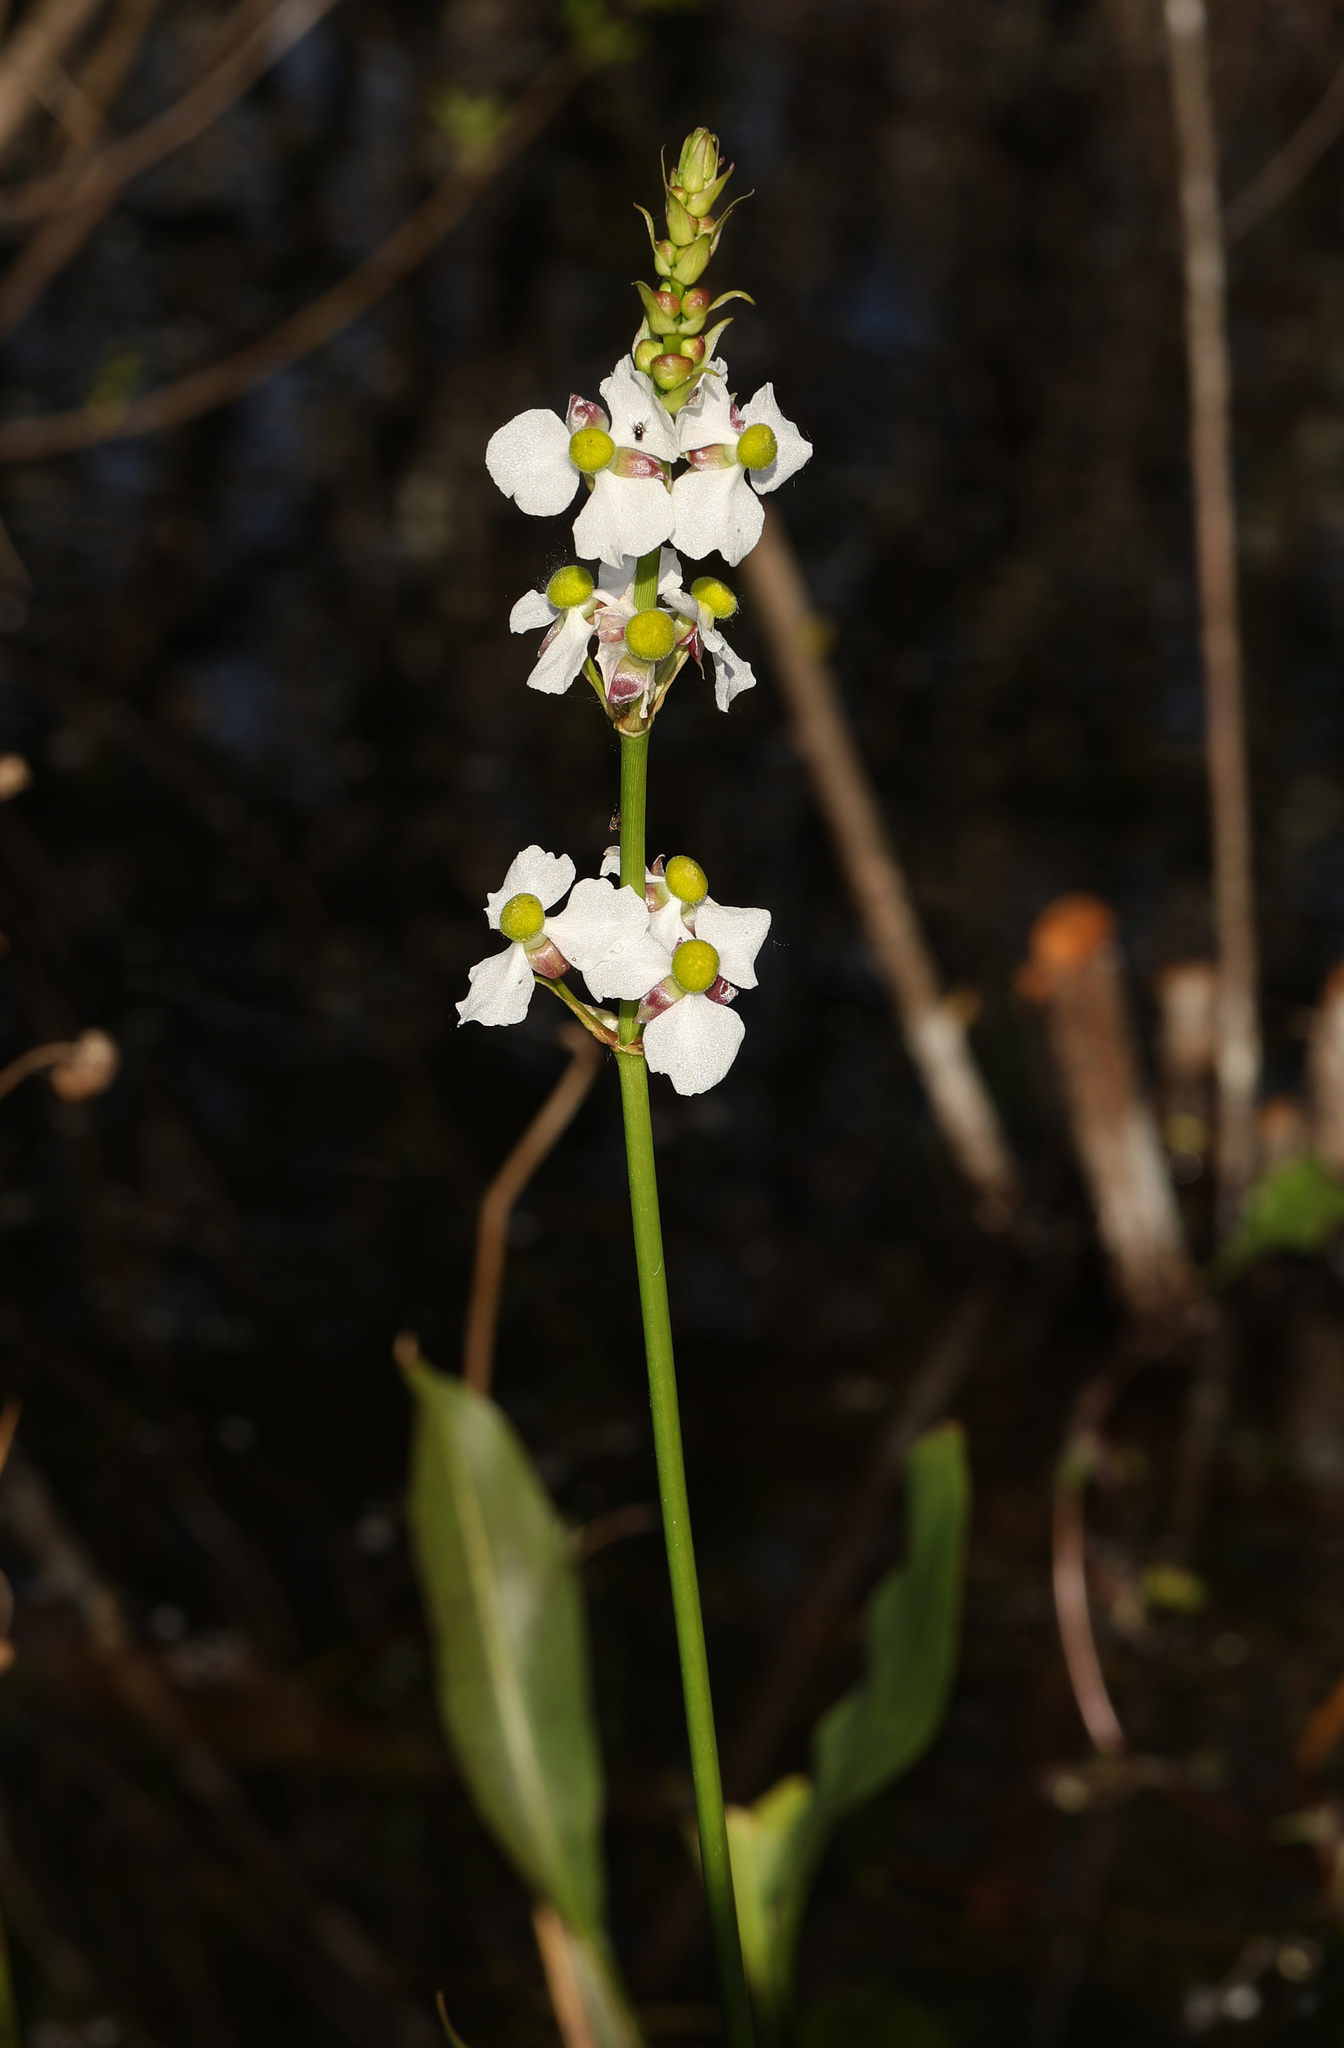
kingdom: Plantae
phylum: Tracheophyta
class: Liliopsida
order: Alismatales
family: Alismataceae
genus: Sagittaria
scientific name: Sagittaria lancifolia
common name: Lance-leaf arrowhead
